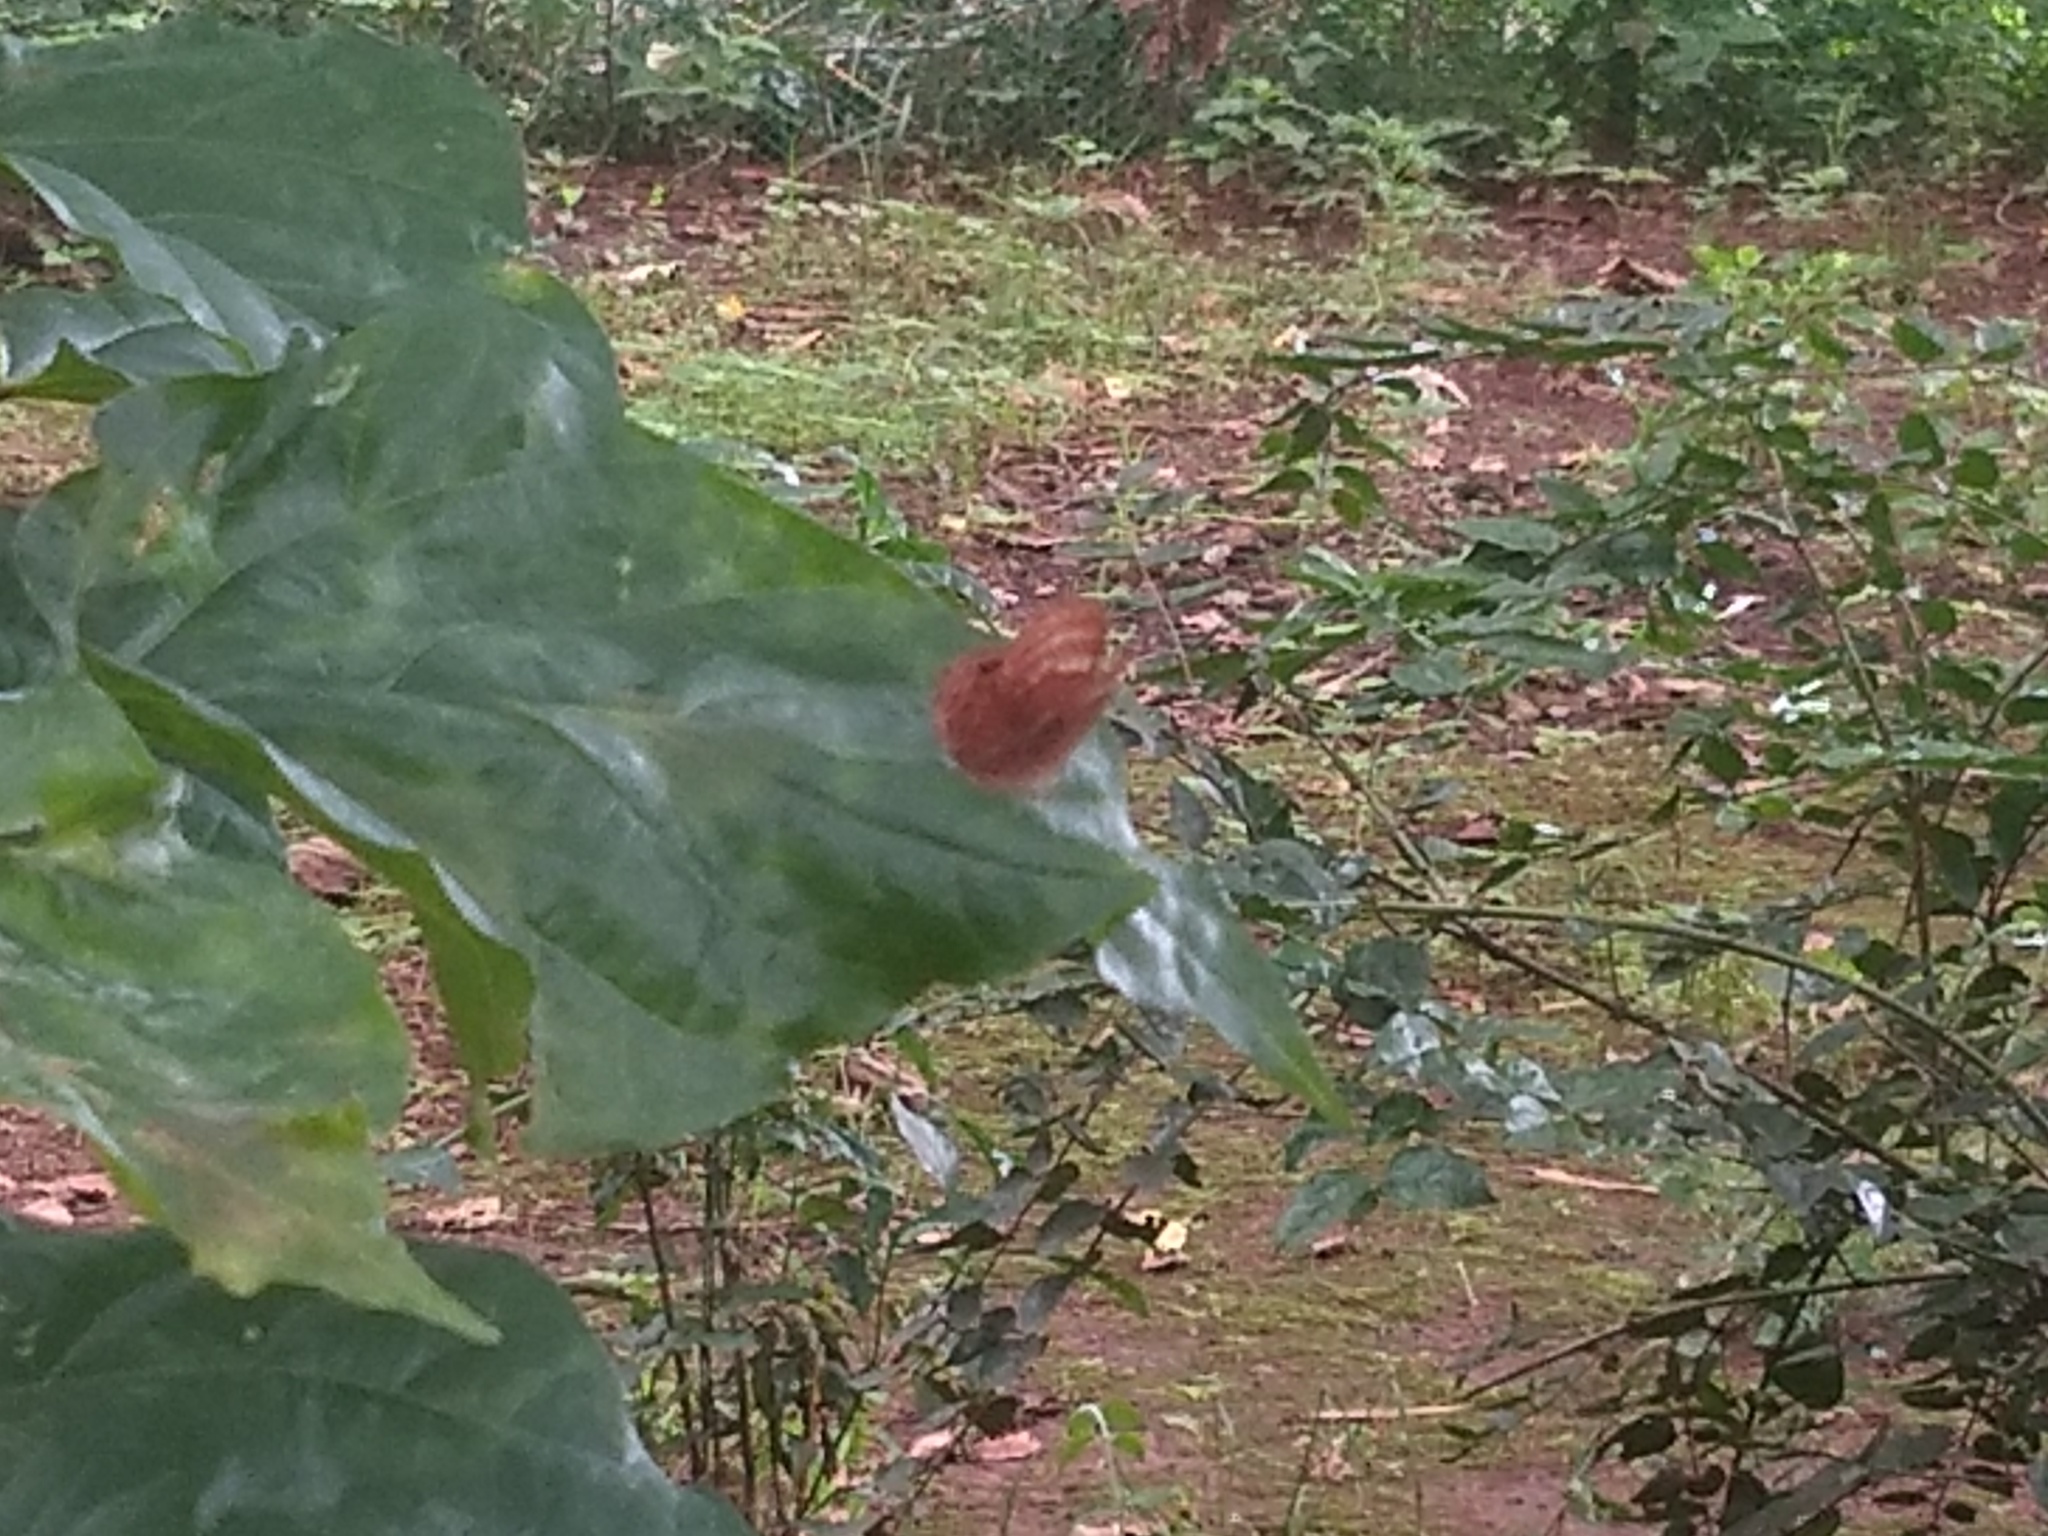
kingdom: Animalia
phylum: Arthropoda
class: Insecta
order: Lepidoptera
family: Lycaenidae
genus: Abisara
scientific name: Abisara echeria
